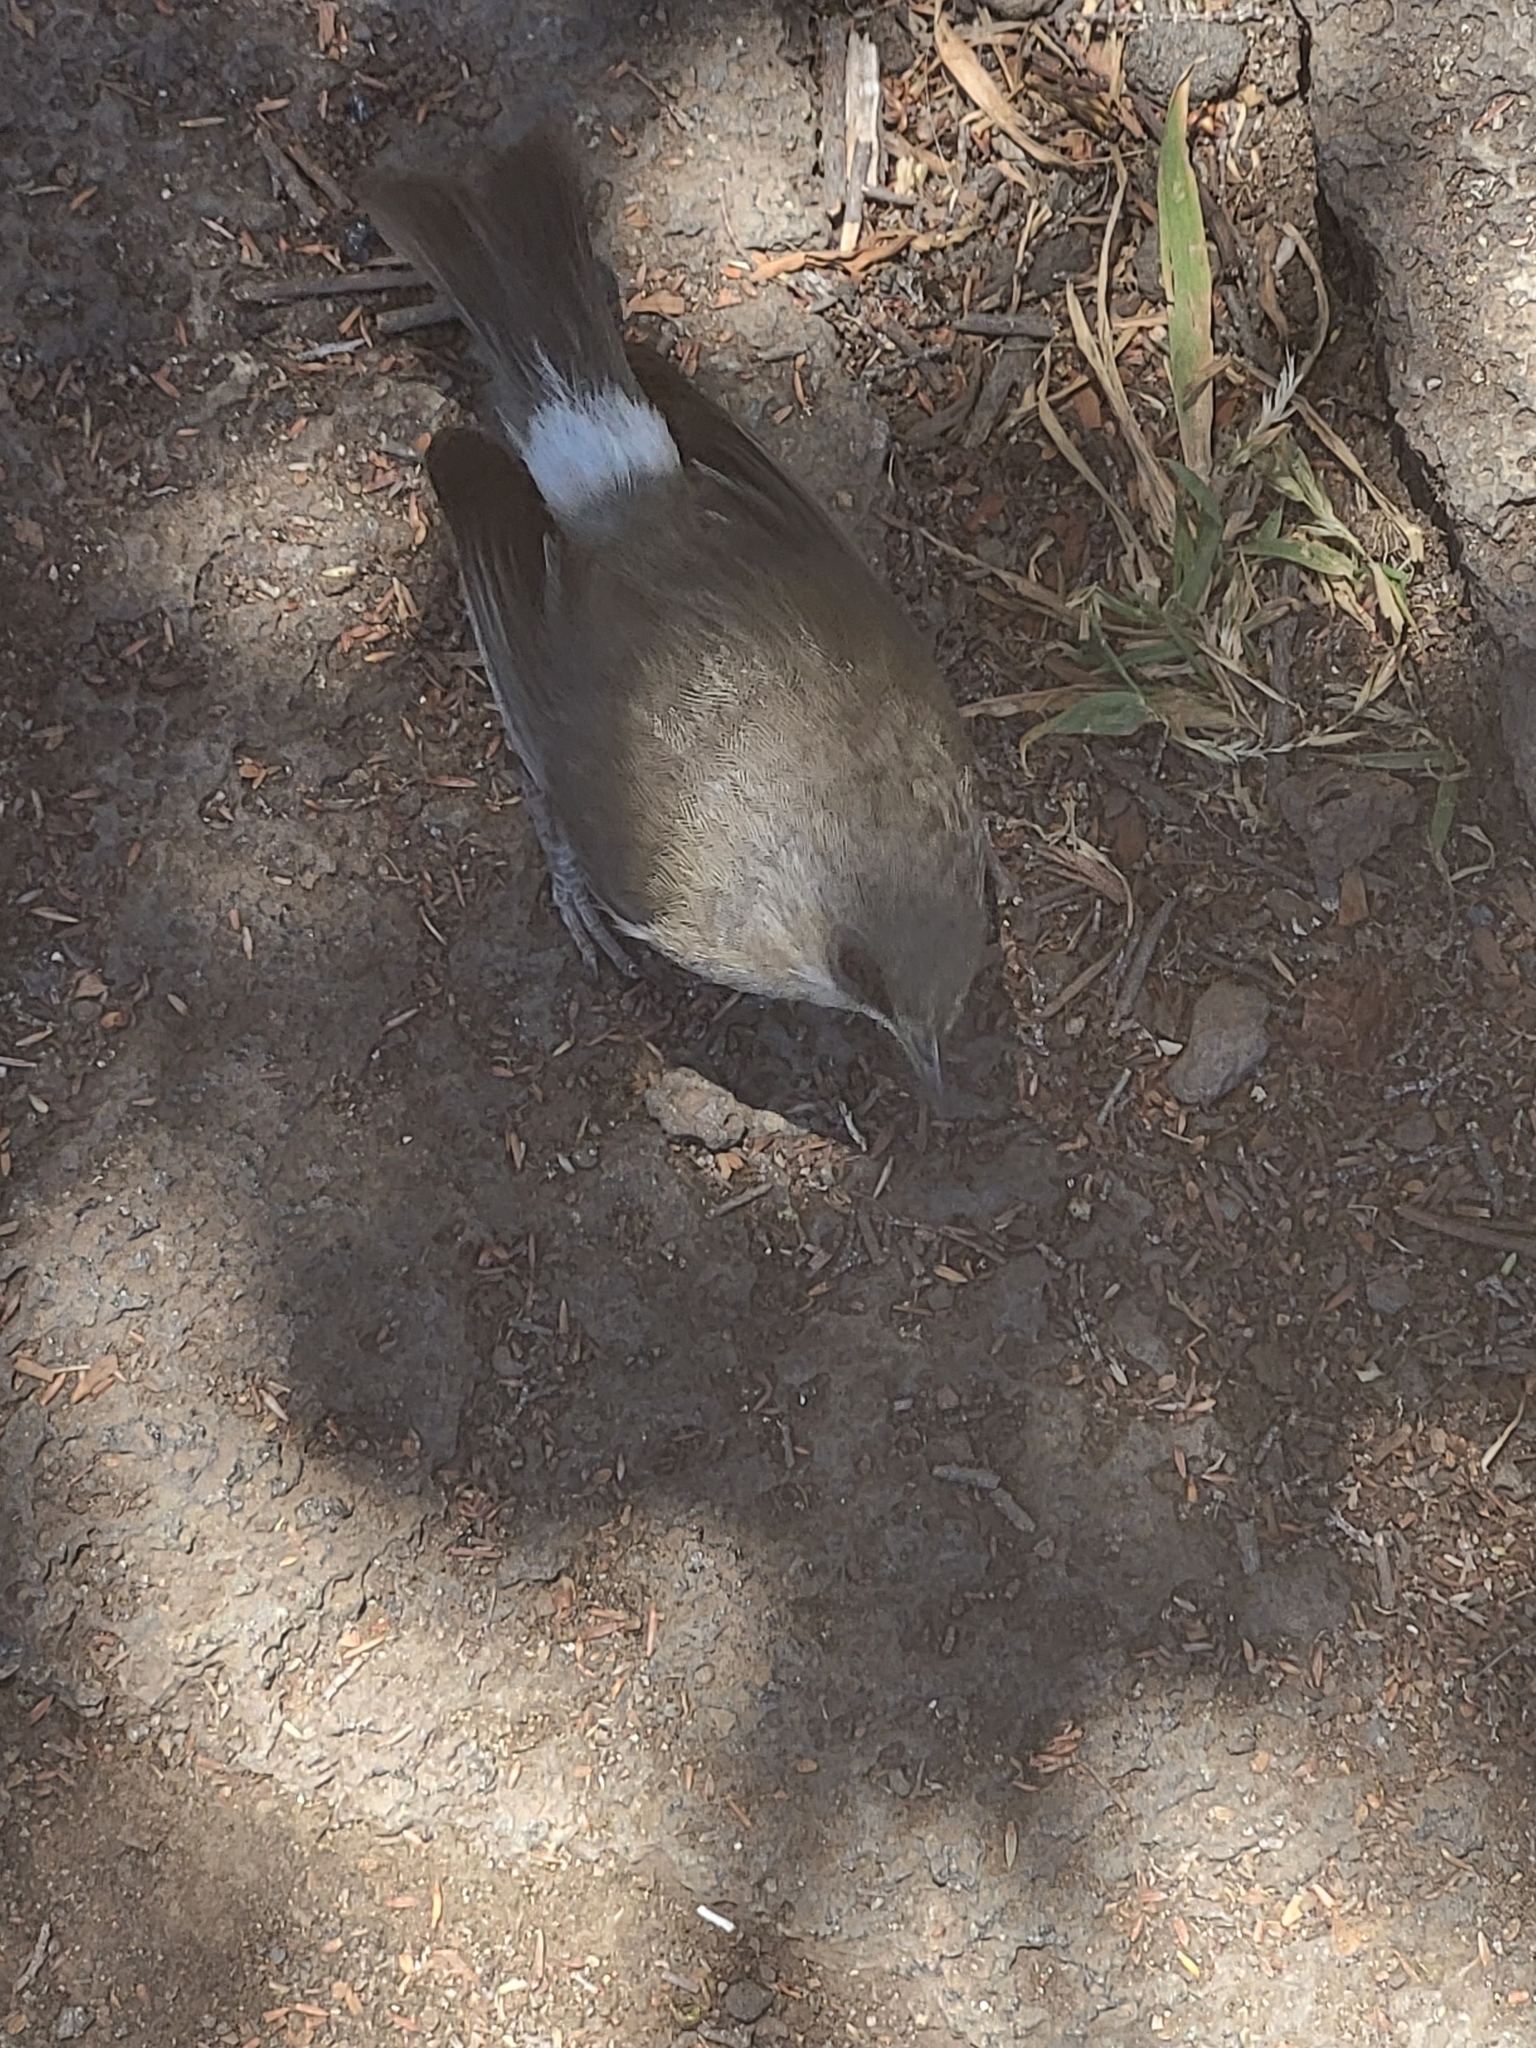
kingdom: Animalia
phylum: Chordata
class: Aves
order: Passeriformes
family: Zosteropidae
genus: Zosterops
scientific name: Zosterops borbonicus
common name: Reunion grey white-eye
